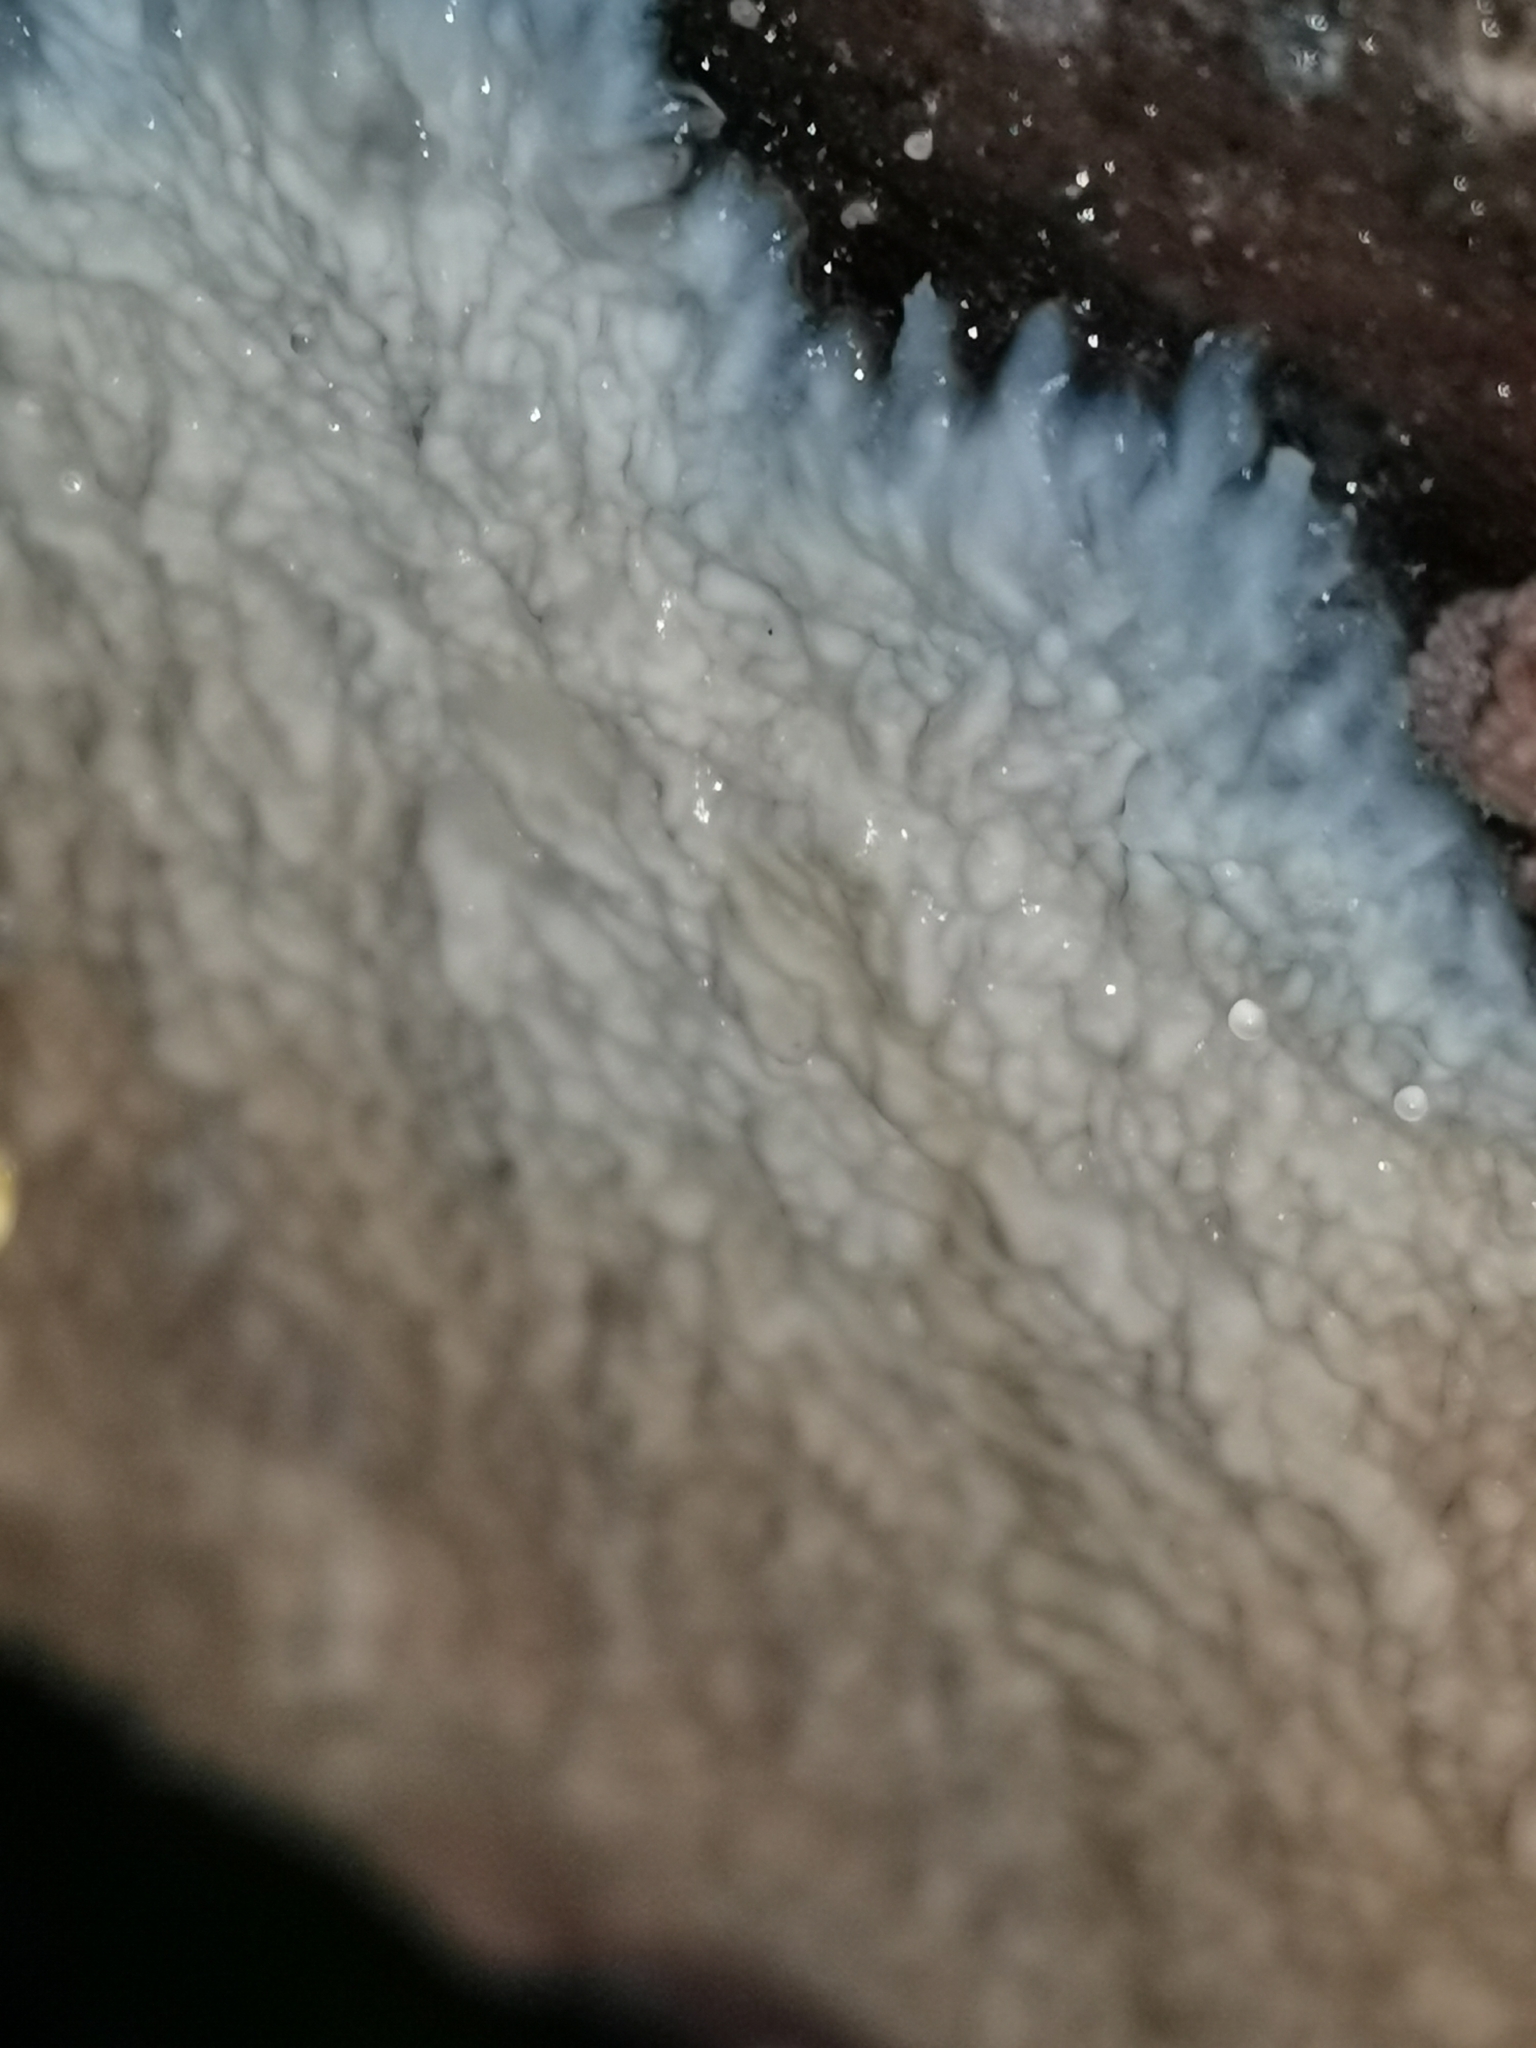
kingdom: Fungi
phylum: Basidiomycota
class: Agaricomycetes
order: Polyporales
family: Meruliaceae
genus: Hermanssonia
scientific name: Hermanssonia centrifuga
